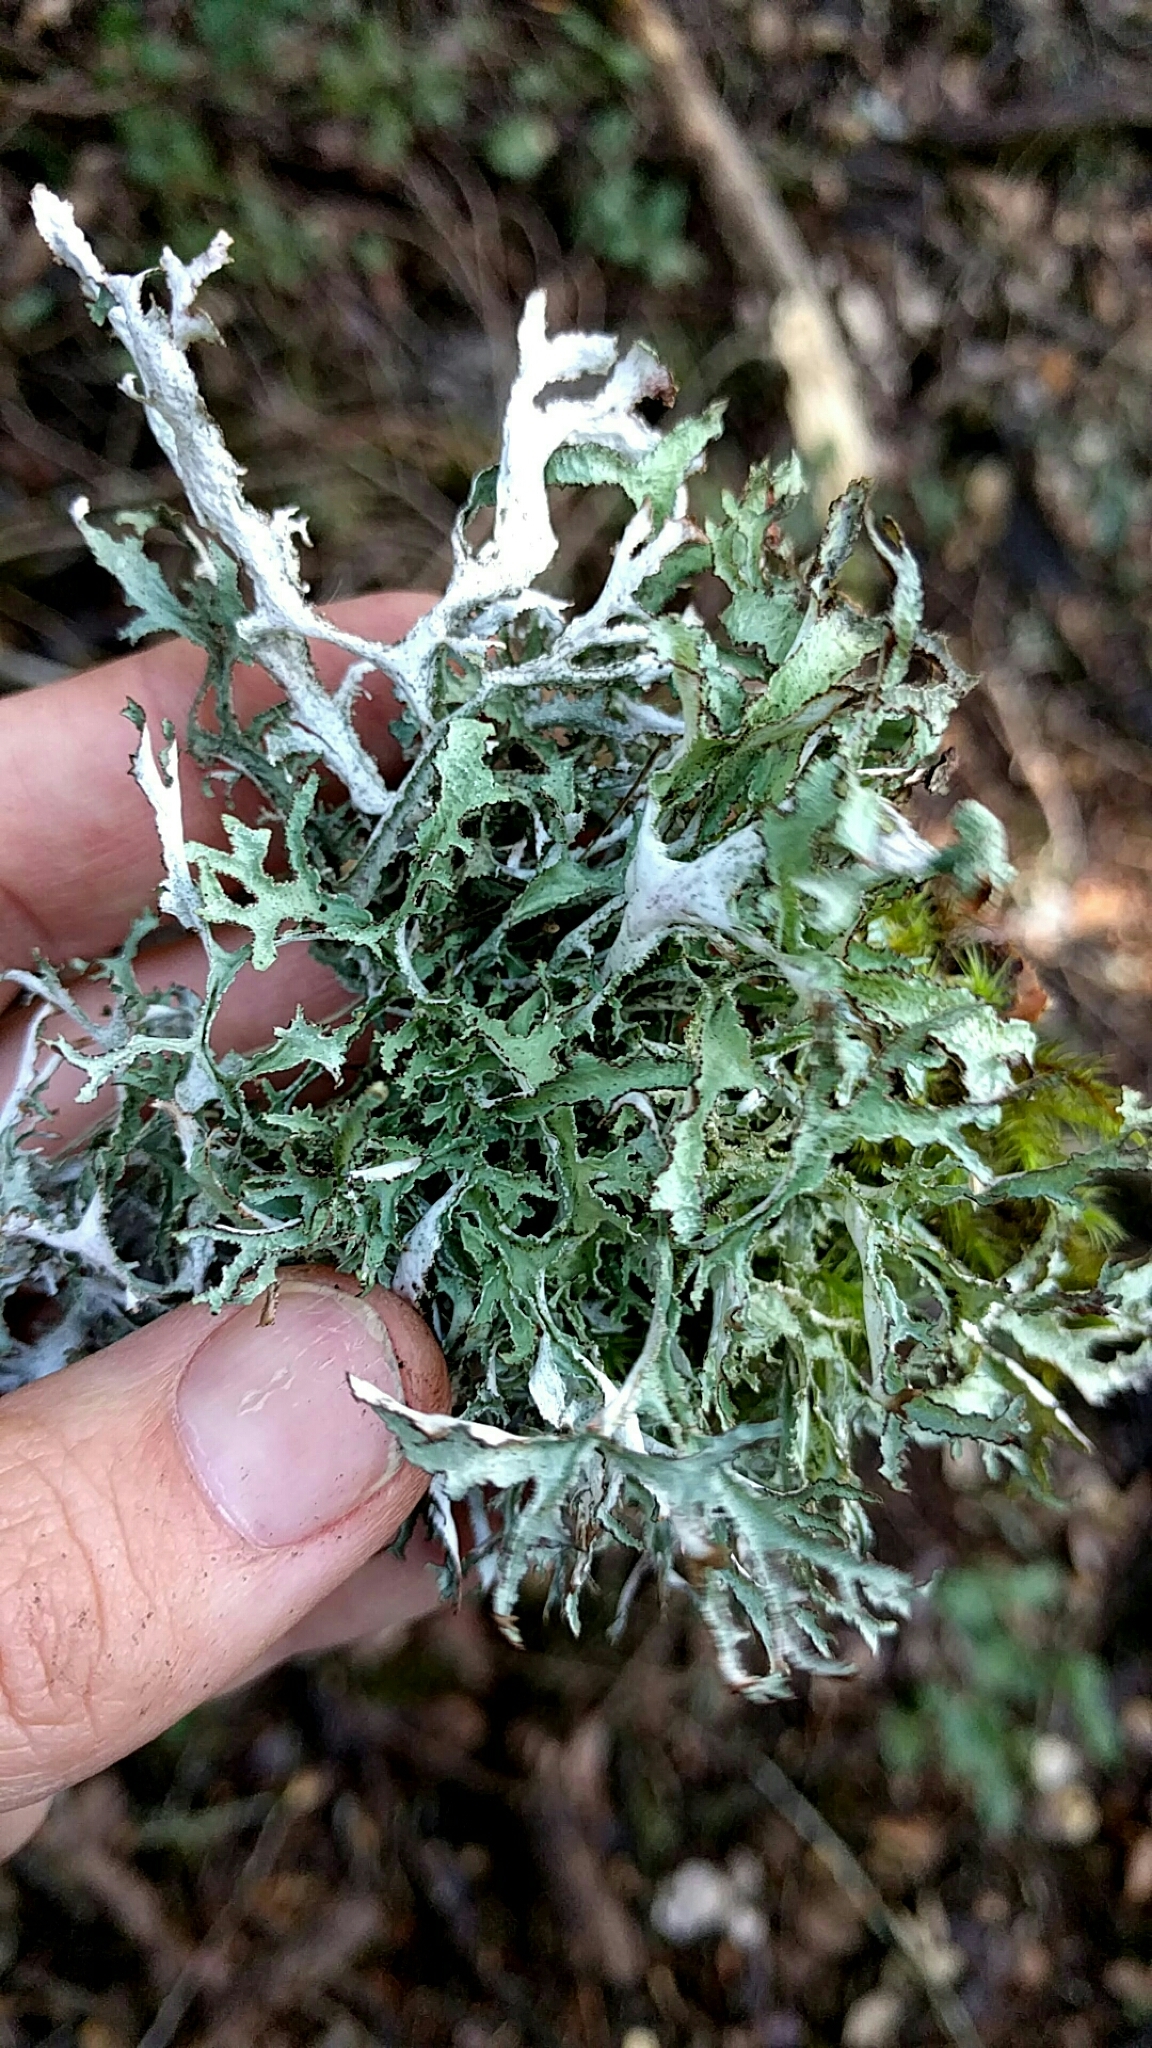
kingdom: Fungi
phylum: Ascomycota
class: Lecanoromycetes
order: Lecanorales
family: Parmeliaceae
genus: Platismatia
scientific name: Platismatia herrei
